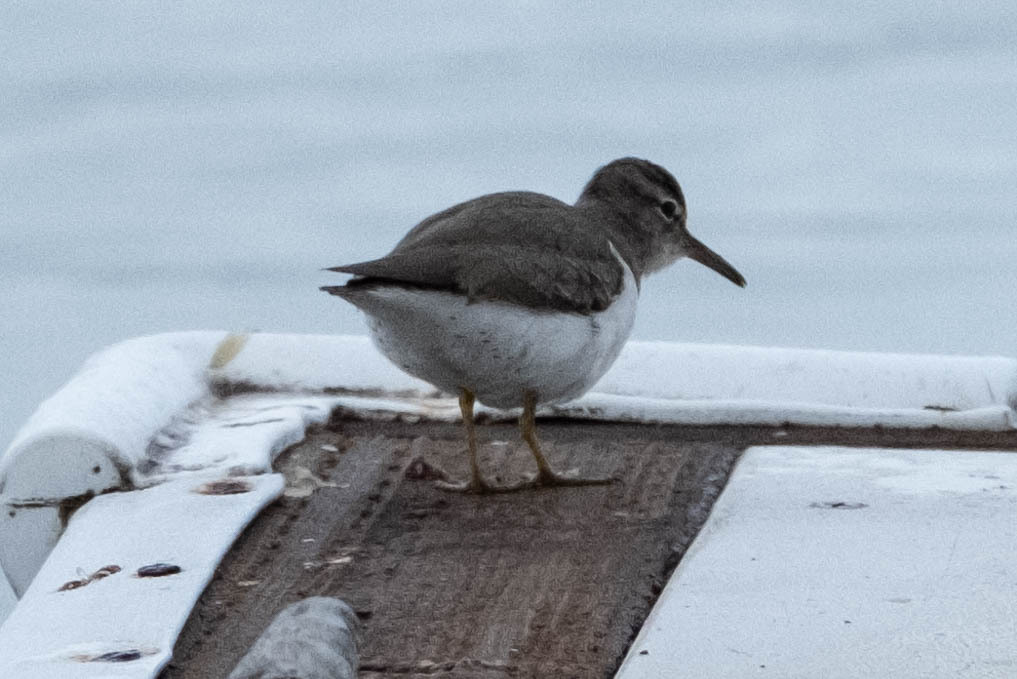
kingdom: Animalia
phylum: Chordata
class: Aves
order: Charadriiformes
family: Scolopacidae
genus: Actitis
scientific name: Actitis macularius
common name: Spotted sandpiper
